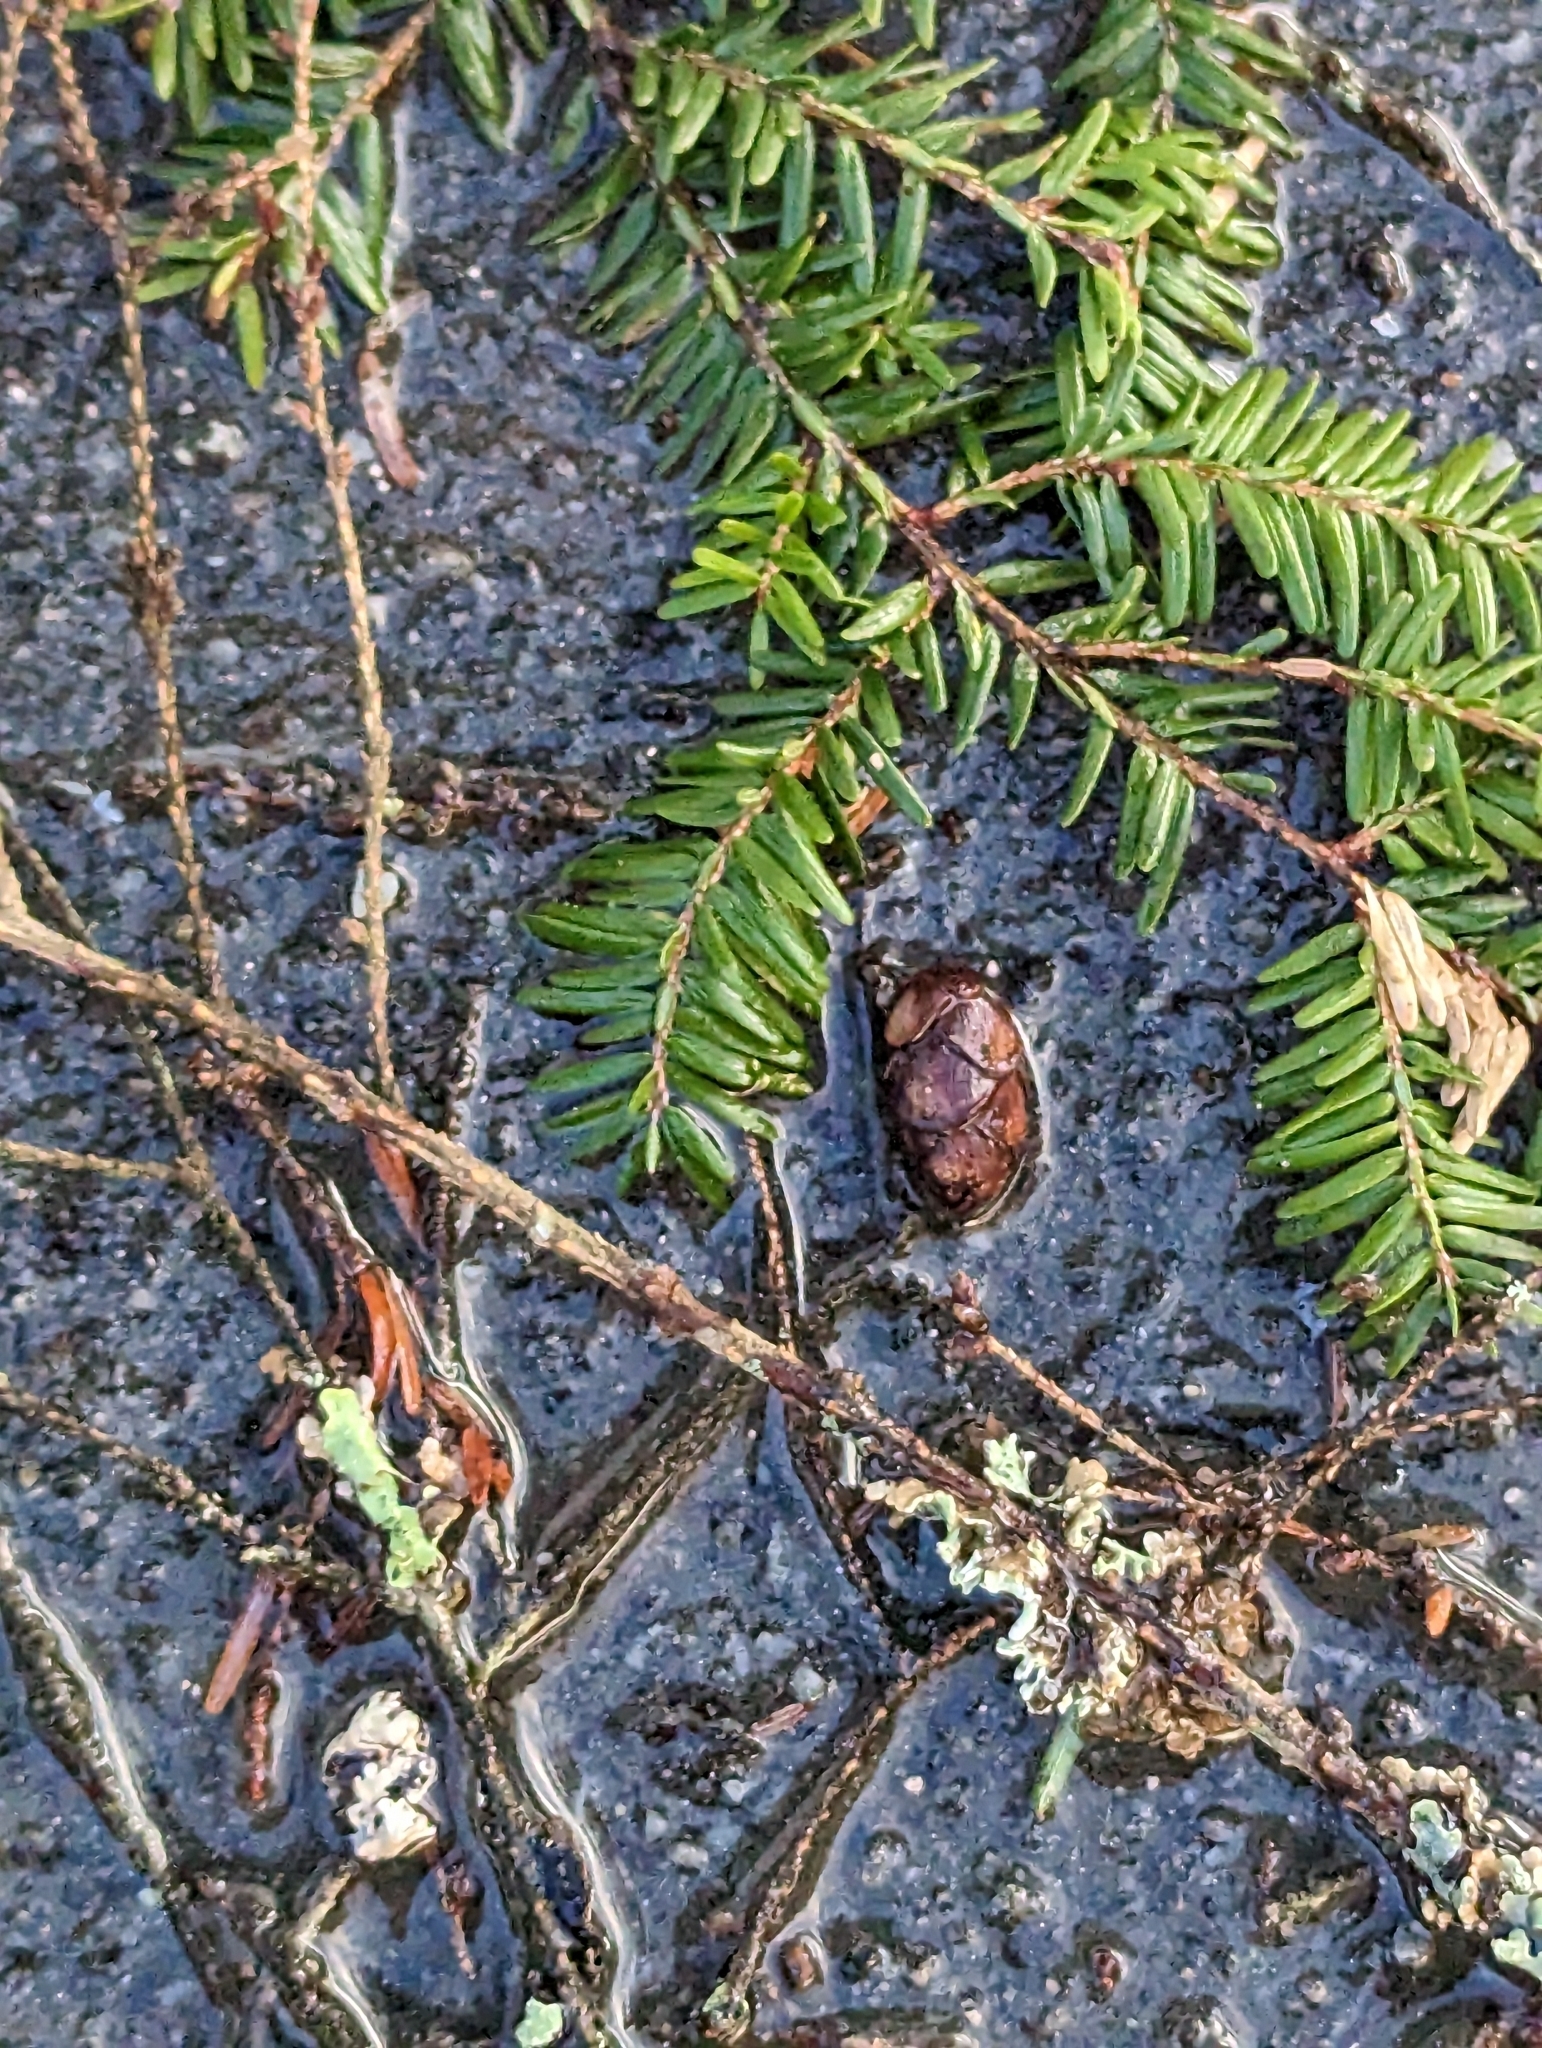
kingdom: Plantae
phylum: Tracheophyta
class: Pinopsida
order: Pinales
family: Pinaceae
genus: Tsuga
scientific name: Tsuga canadensis
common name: Eastern hemlock
